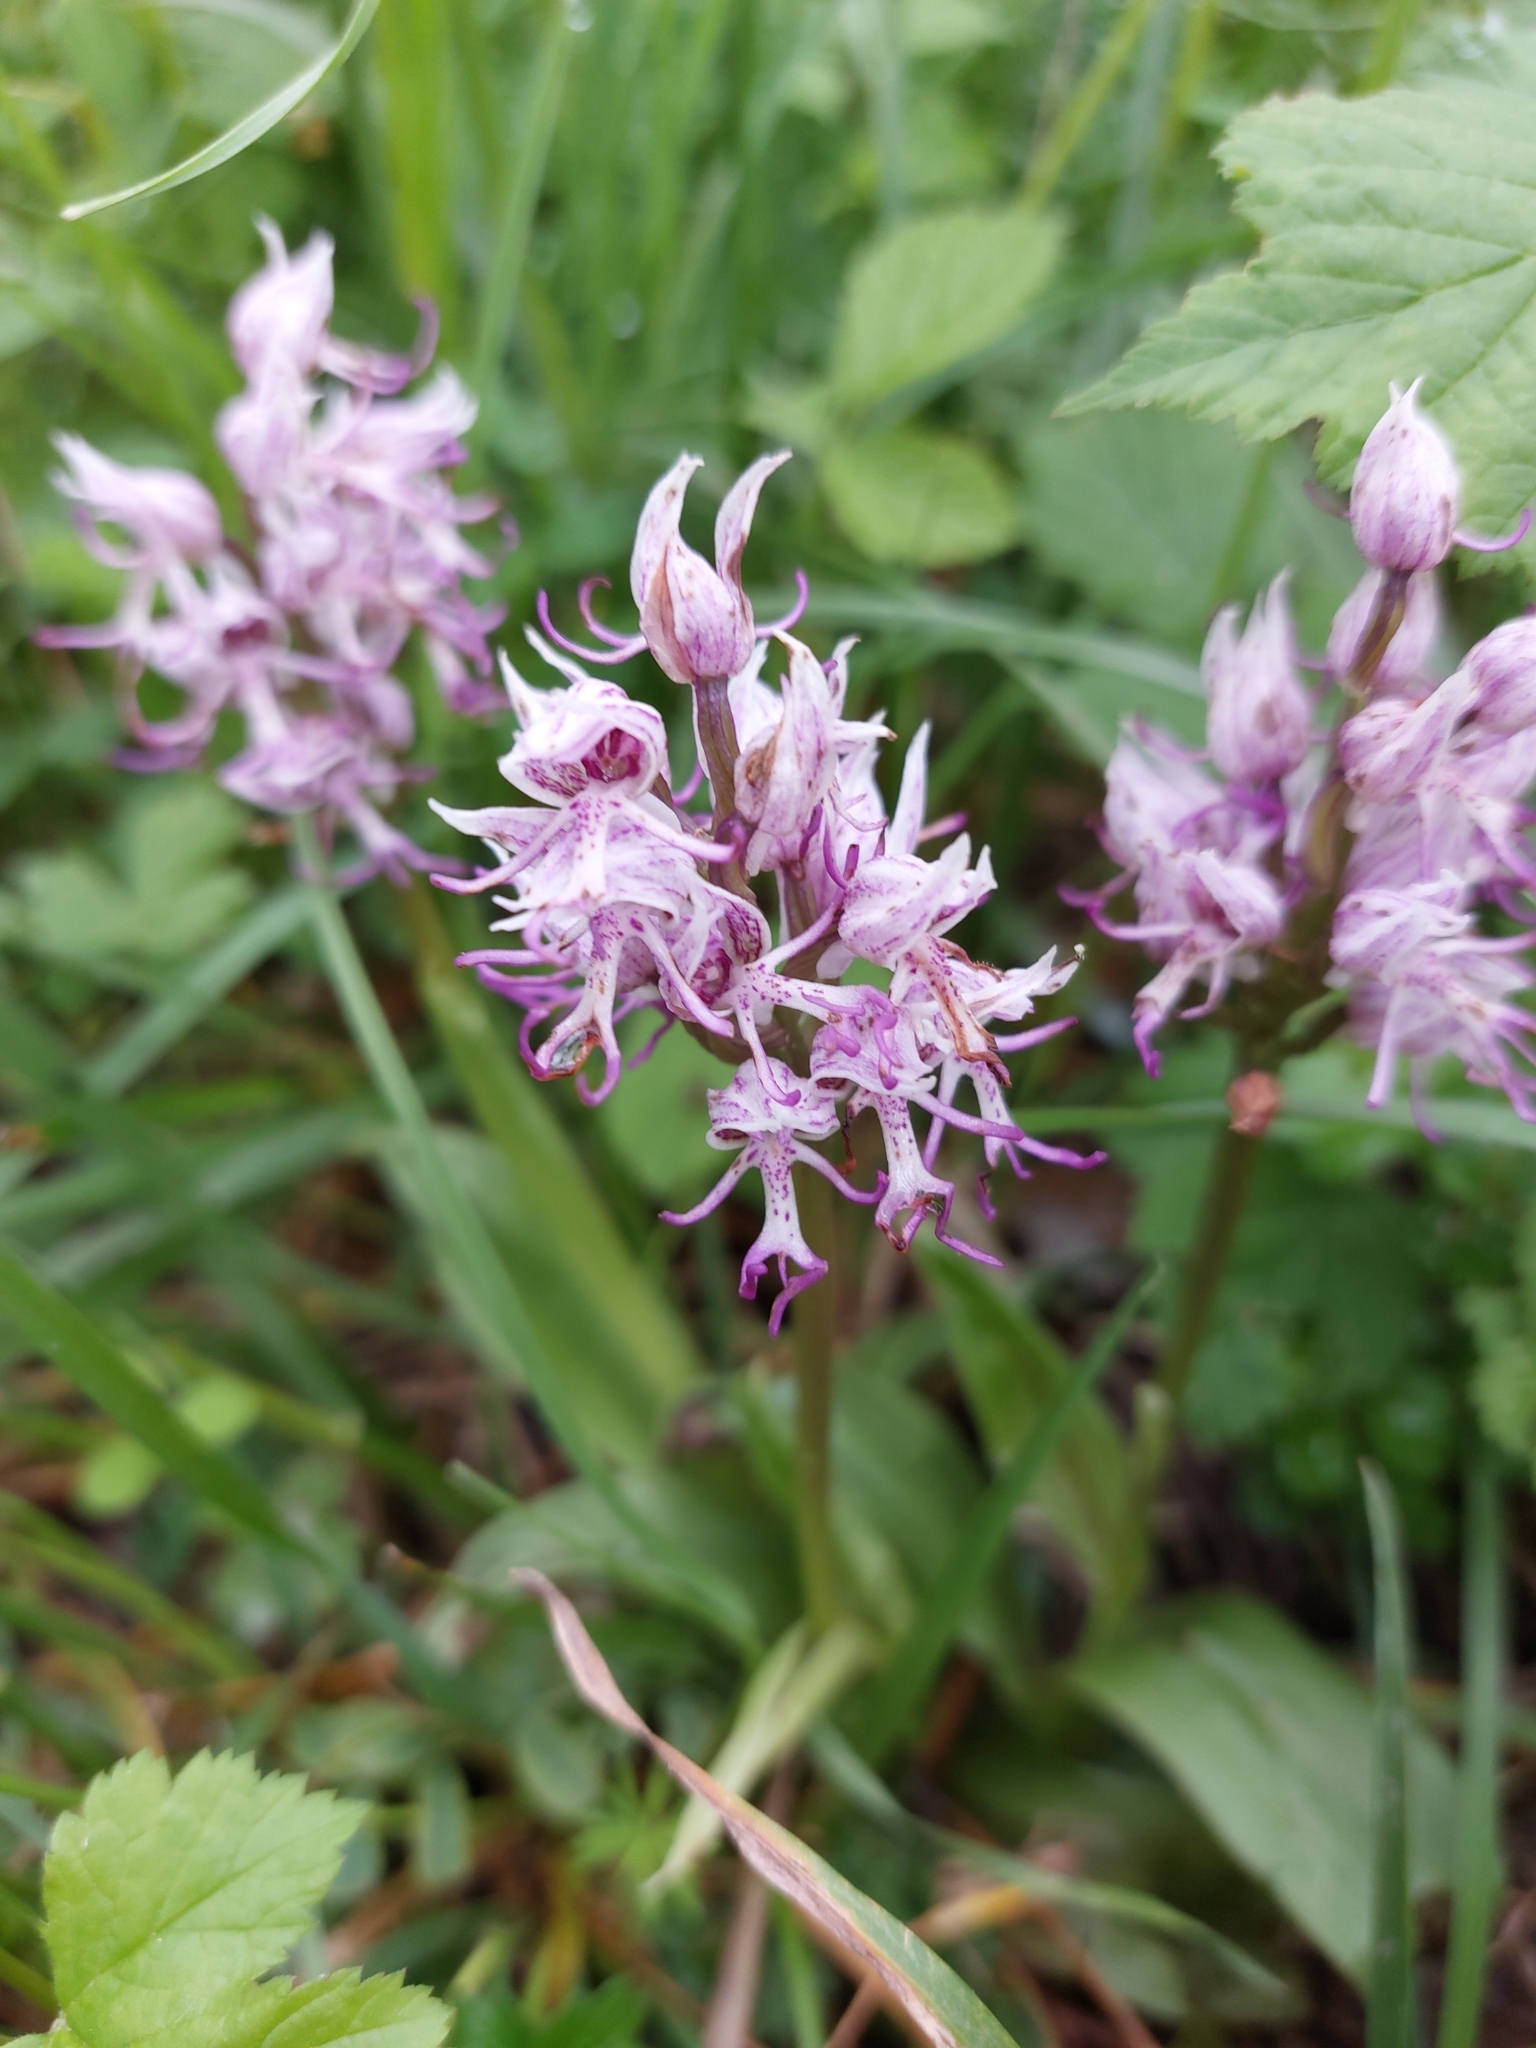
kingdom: Plantae
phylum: Tracheophyta
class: Liliopsida
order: Asparagales
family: Orchidaceae
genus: Orchis
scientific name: Orchis simia
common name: Monkey orchid
